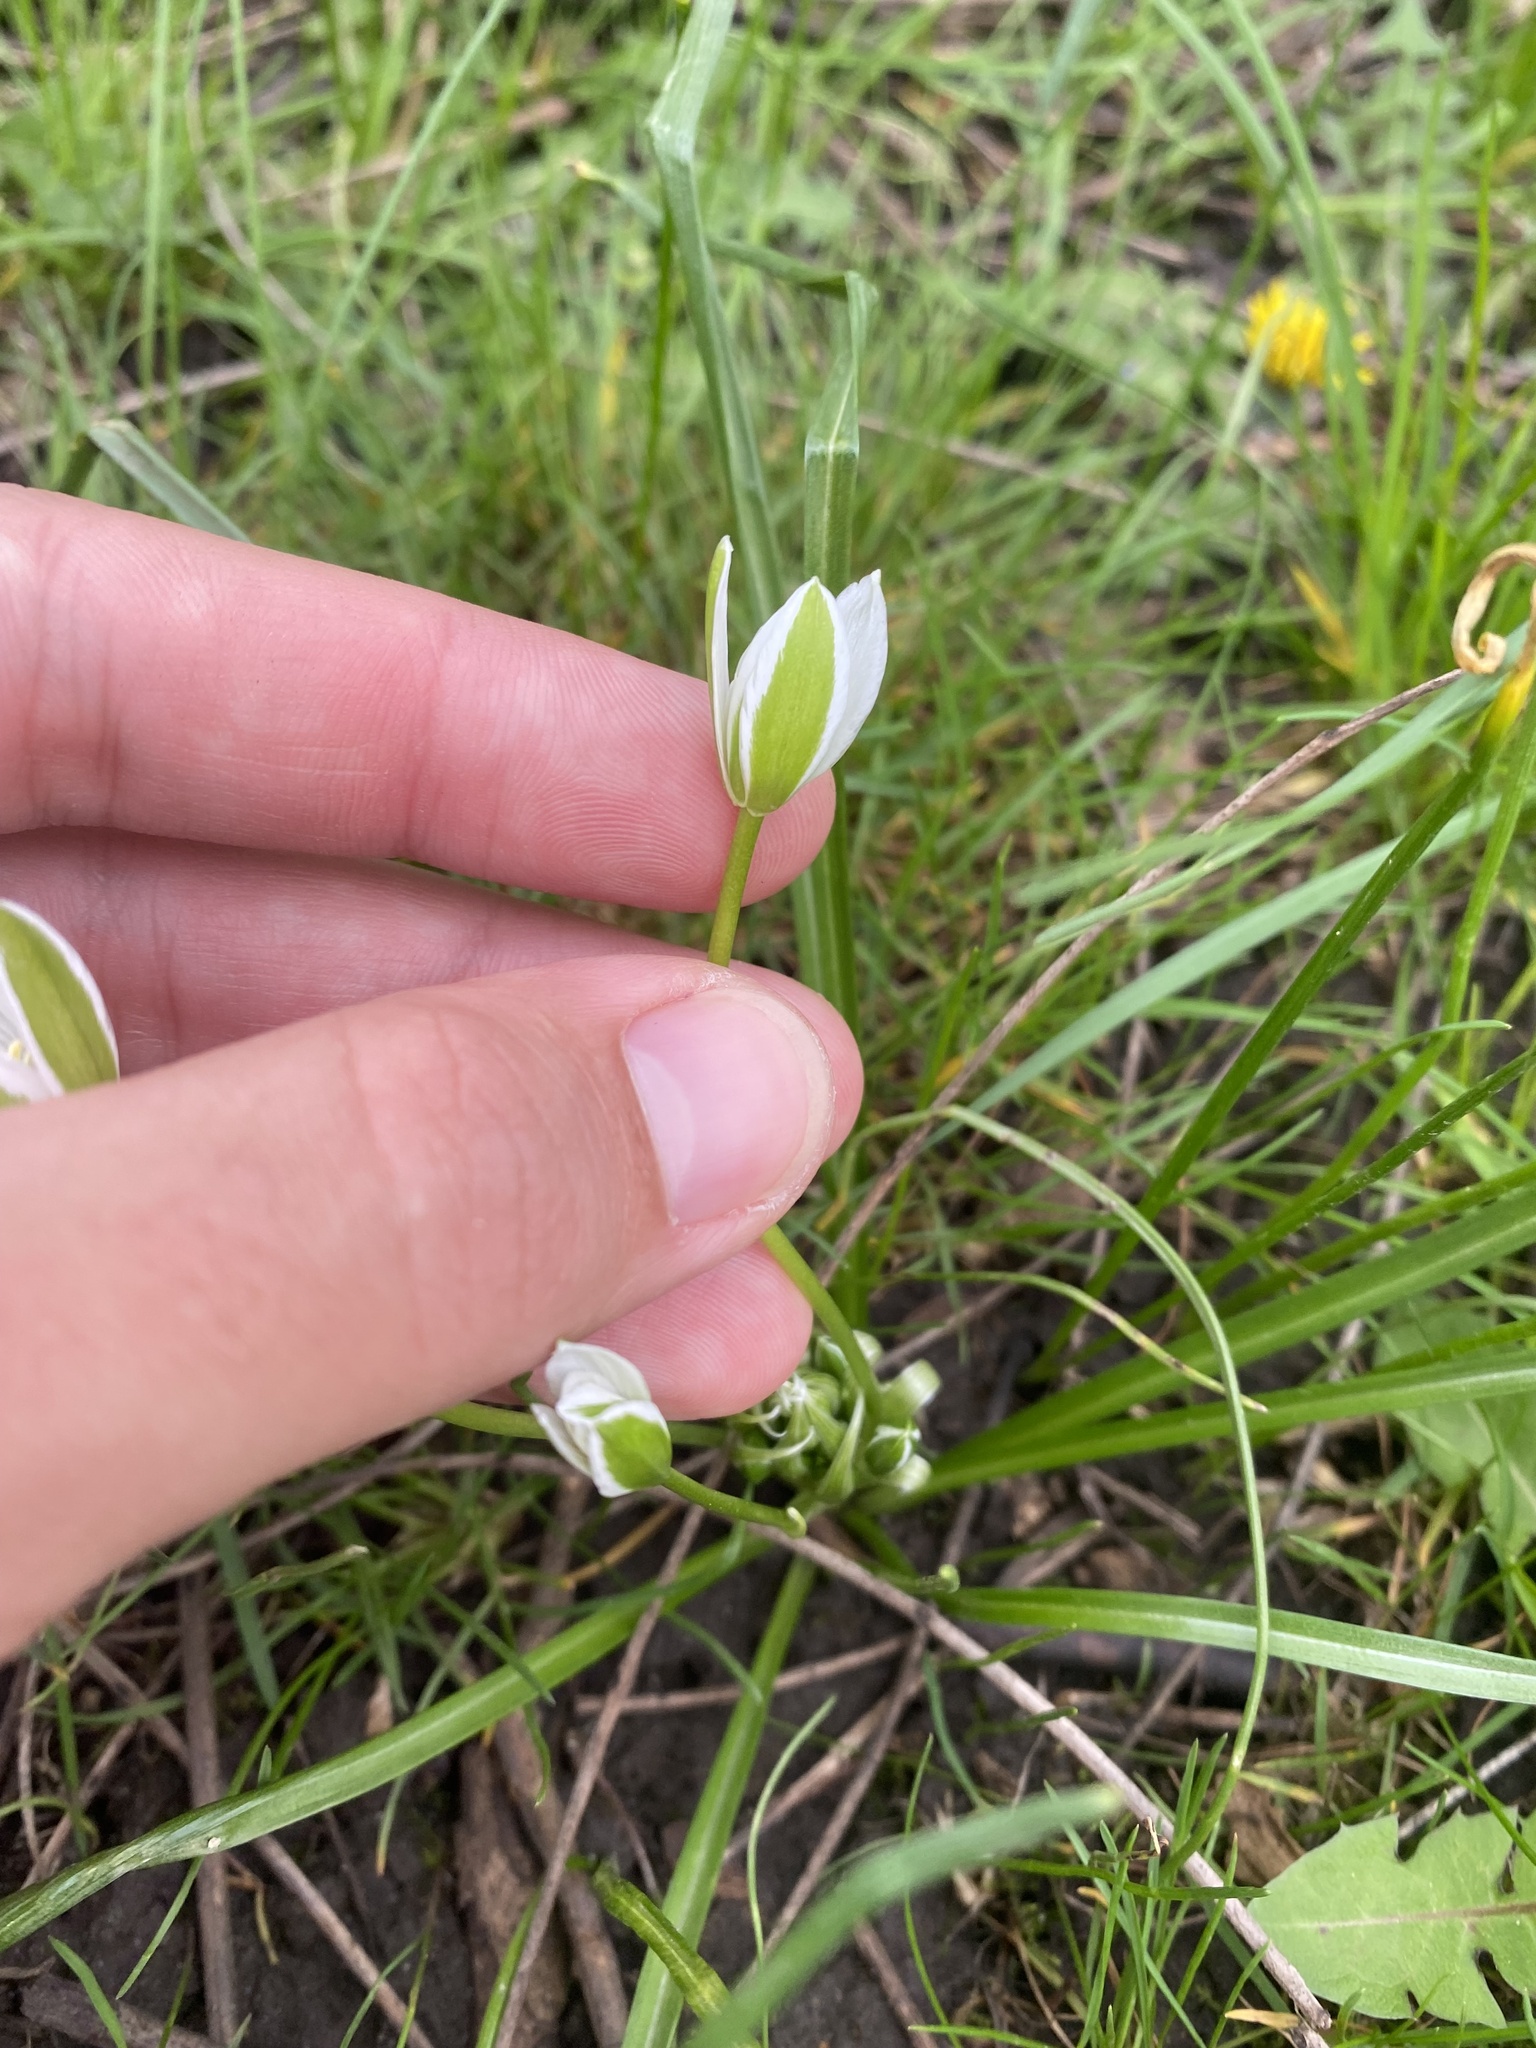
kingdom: Plantae
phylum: Tracheophyta
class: Liliopsida
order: Asparagales
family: Asparagaceae
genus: Ornithogalum
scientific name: Ornithogalum woronowii
